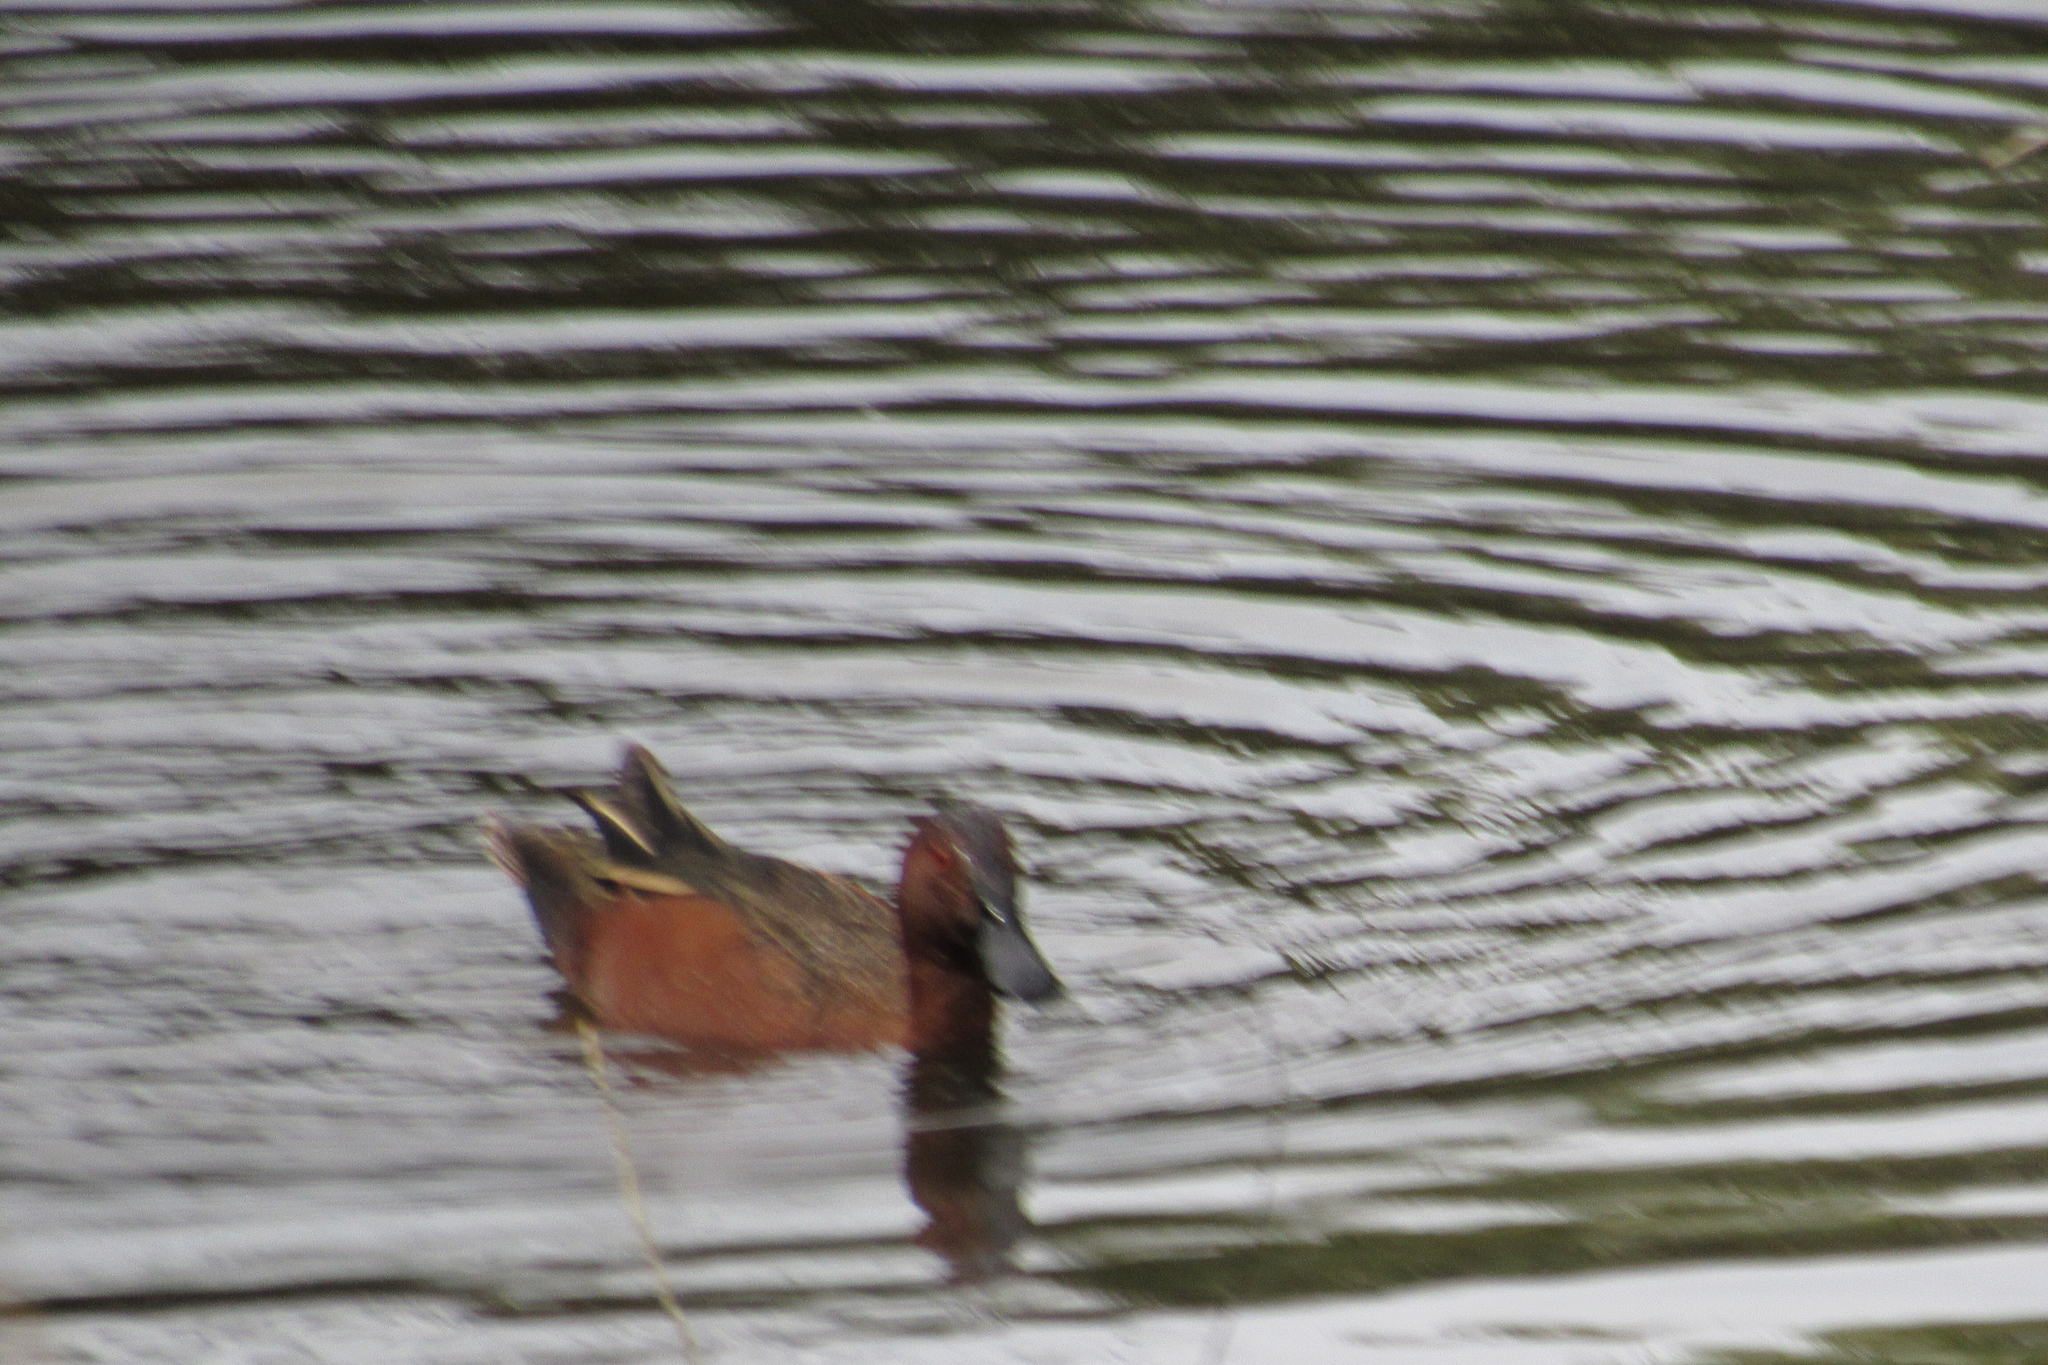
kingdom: Animalia
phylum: Chordata
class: Aves
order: Anseriformes
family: Anatidae
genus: Spatula
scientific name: Spatula cyanoptera
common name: Cinnamon teal
